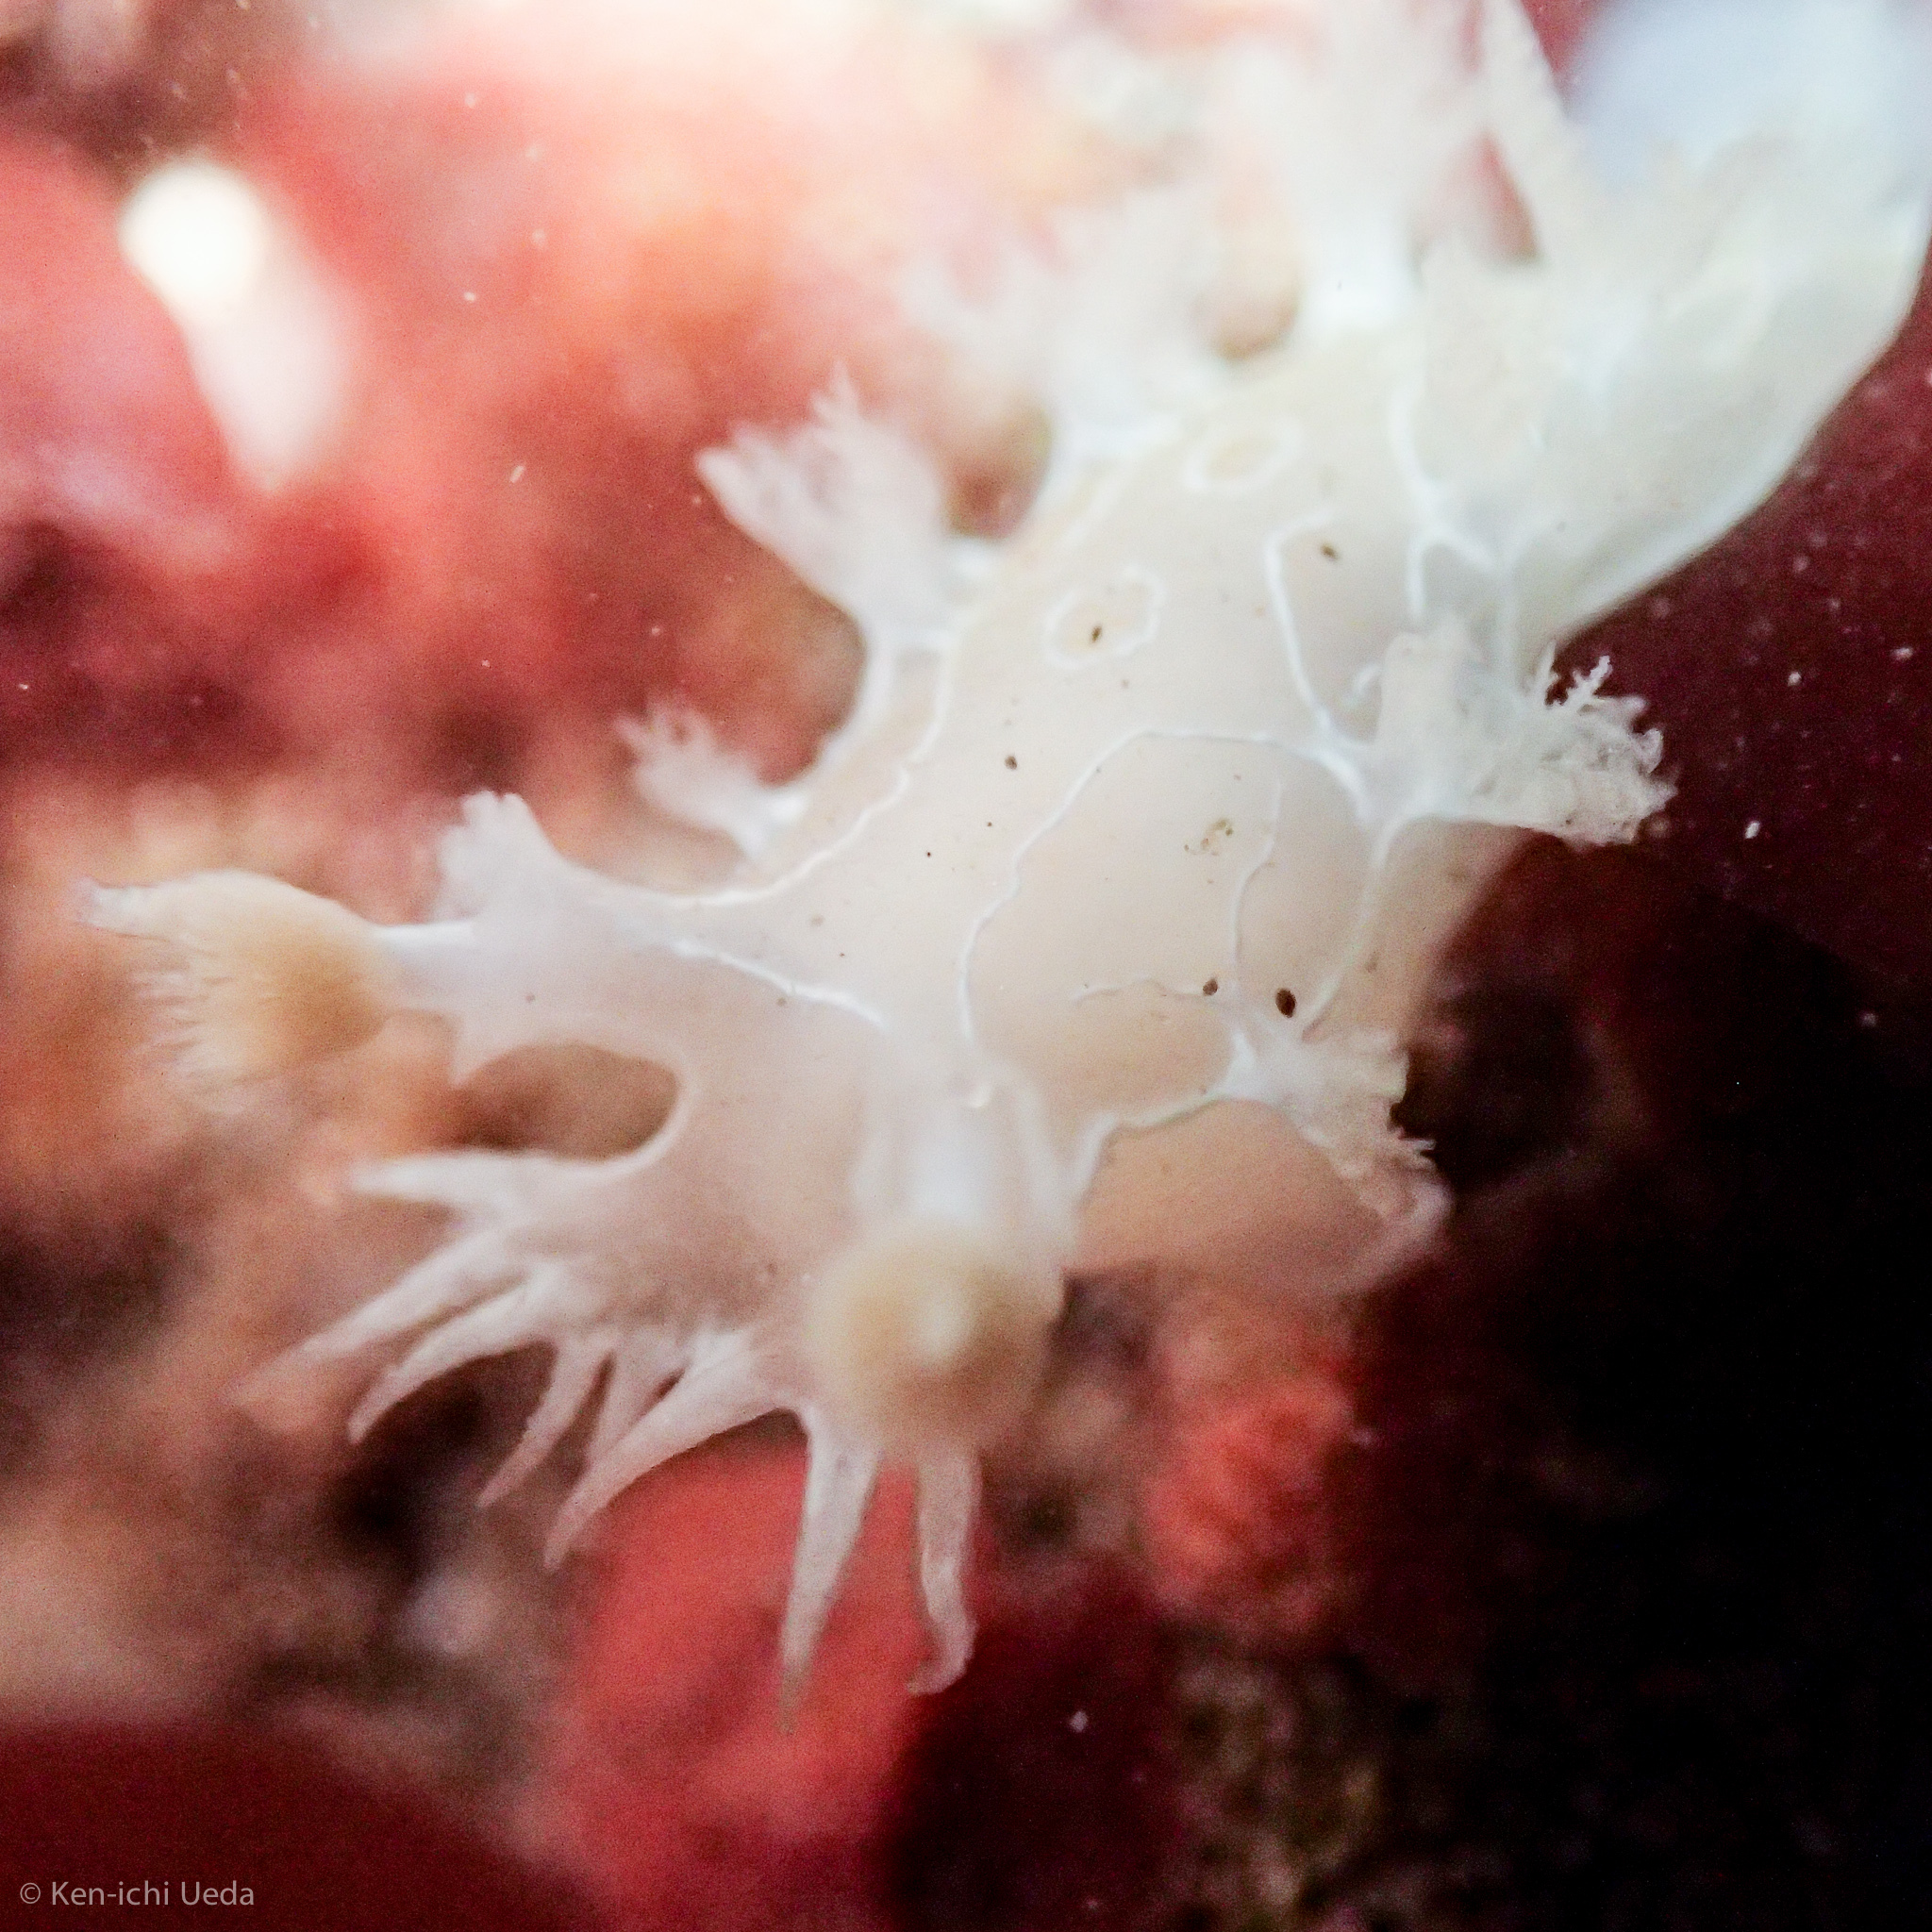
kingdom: Animalia
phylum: Mollusca
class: Gastropoda
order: Nudibranchia
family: Tritoniidae
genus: Tritonia
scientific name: Tritonia festiva
